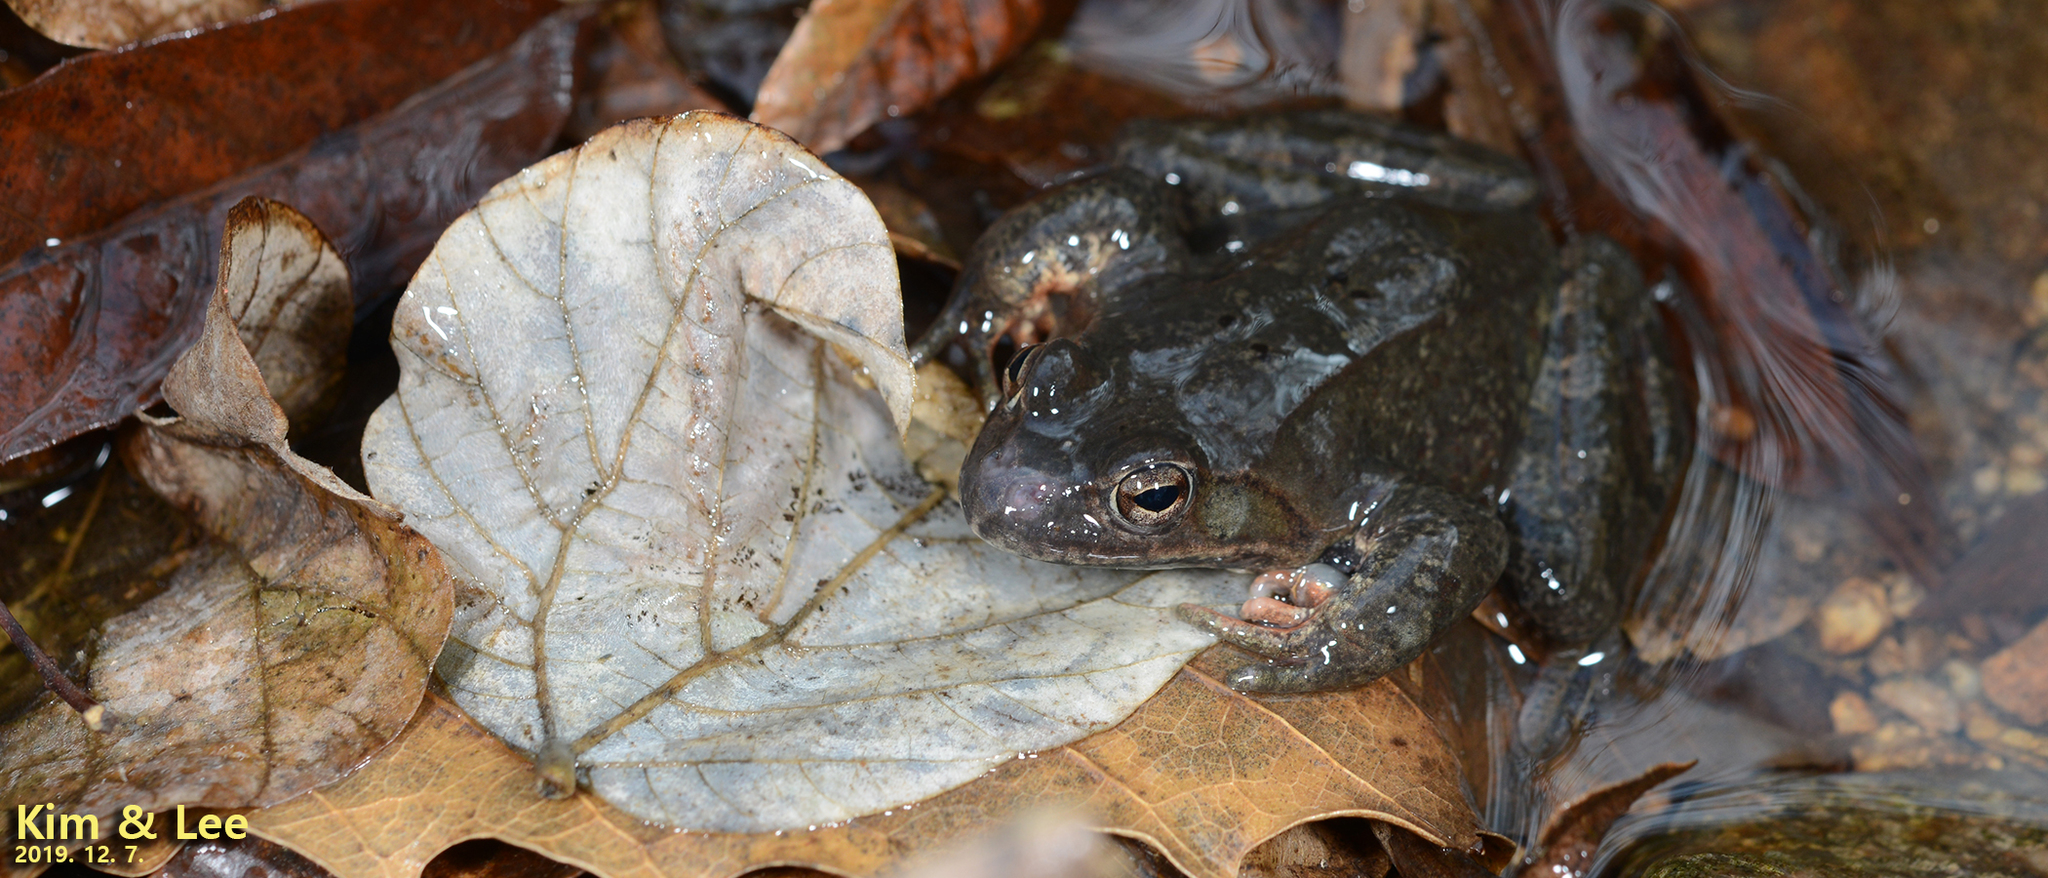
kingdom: Animalia
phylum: Chordata
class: Amphibia
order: Anura
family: Ranidae
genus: Rana
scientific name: Rana dybowskii
